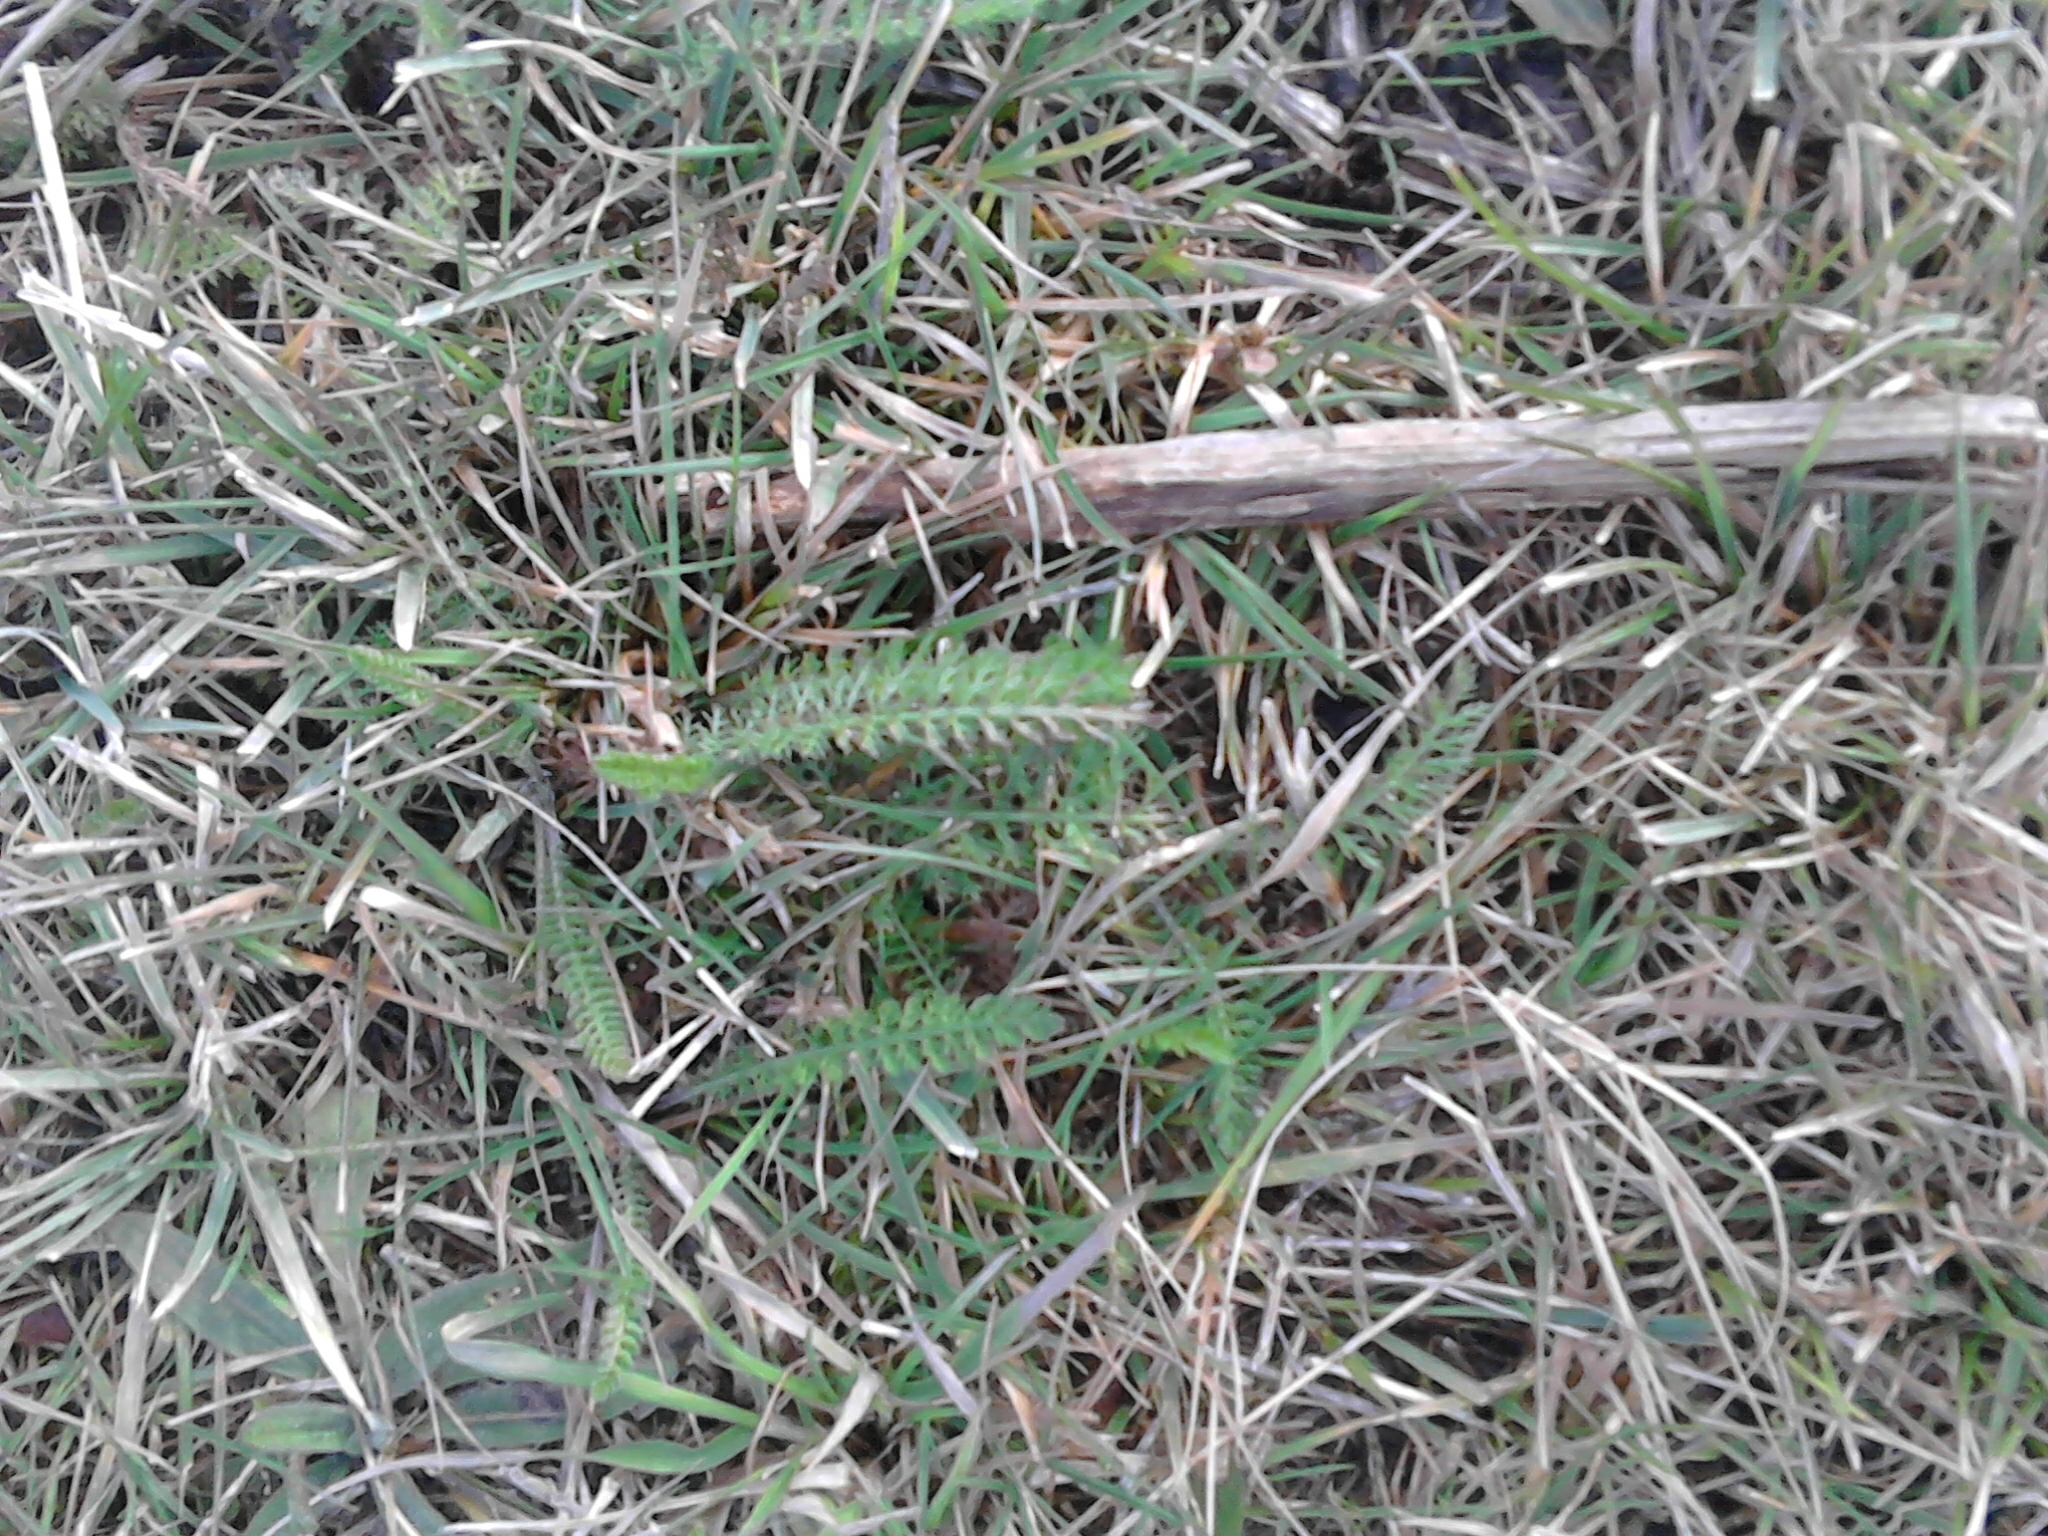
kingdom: Plantae
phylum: Tracheophyta
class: Magnoliopsida
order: Asterales
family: Asteraceae
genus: Achillea
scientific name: Achillea millefolium
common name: Yarrow
